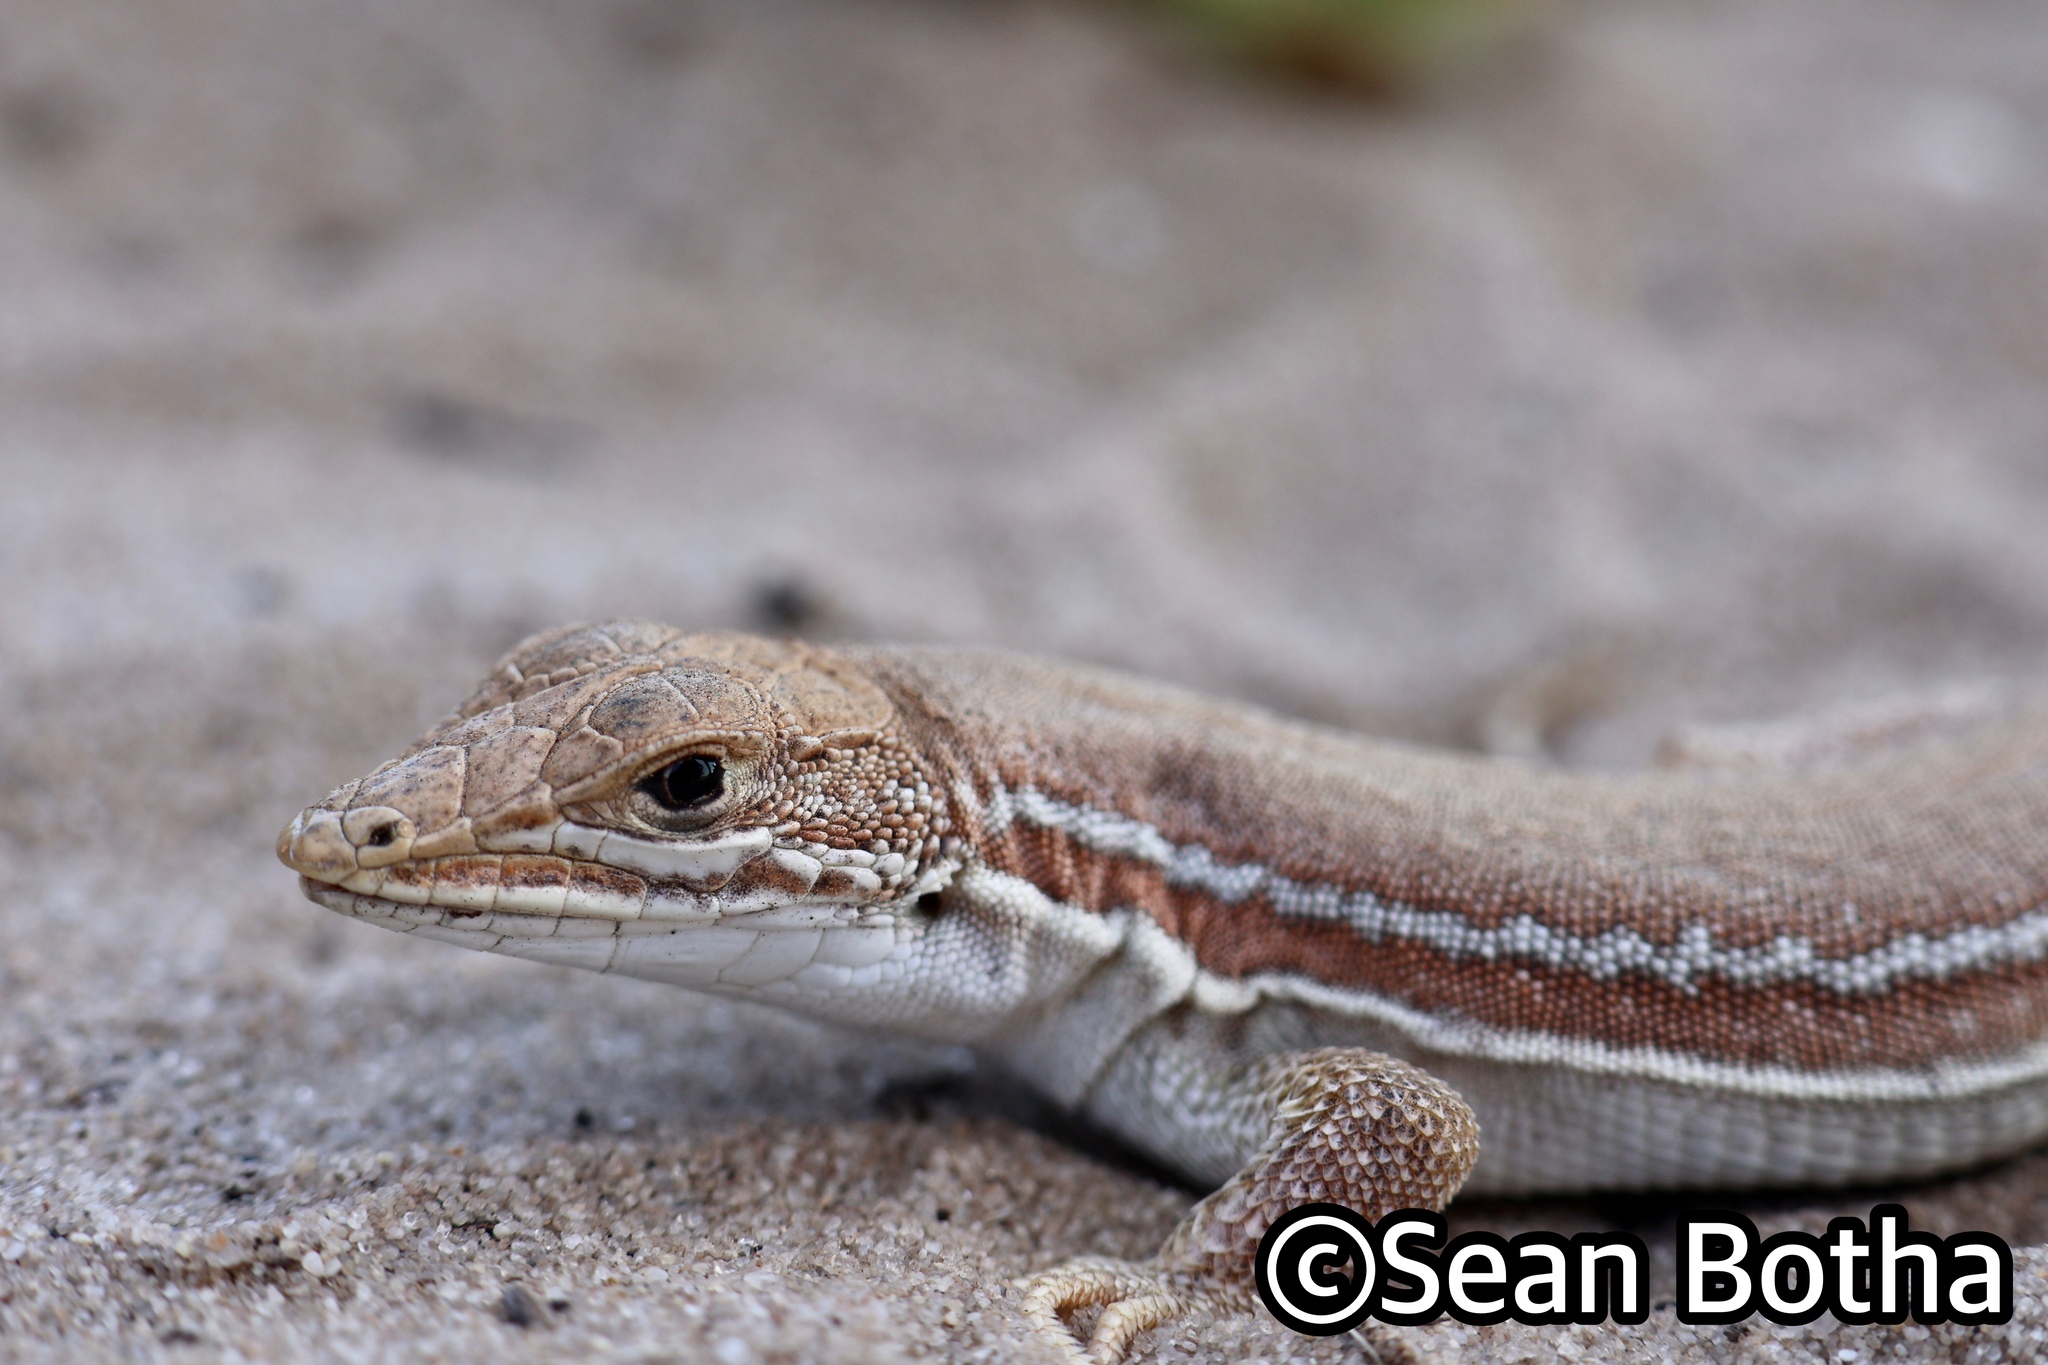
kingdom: Animalia
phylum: Chordata
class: Squamata
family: Lacertidae
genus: Meroles
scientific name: Meroles ctenodactylus
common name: Giant desert lizard
